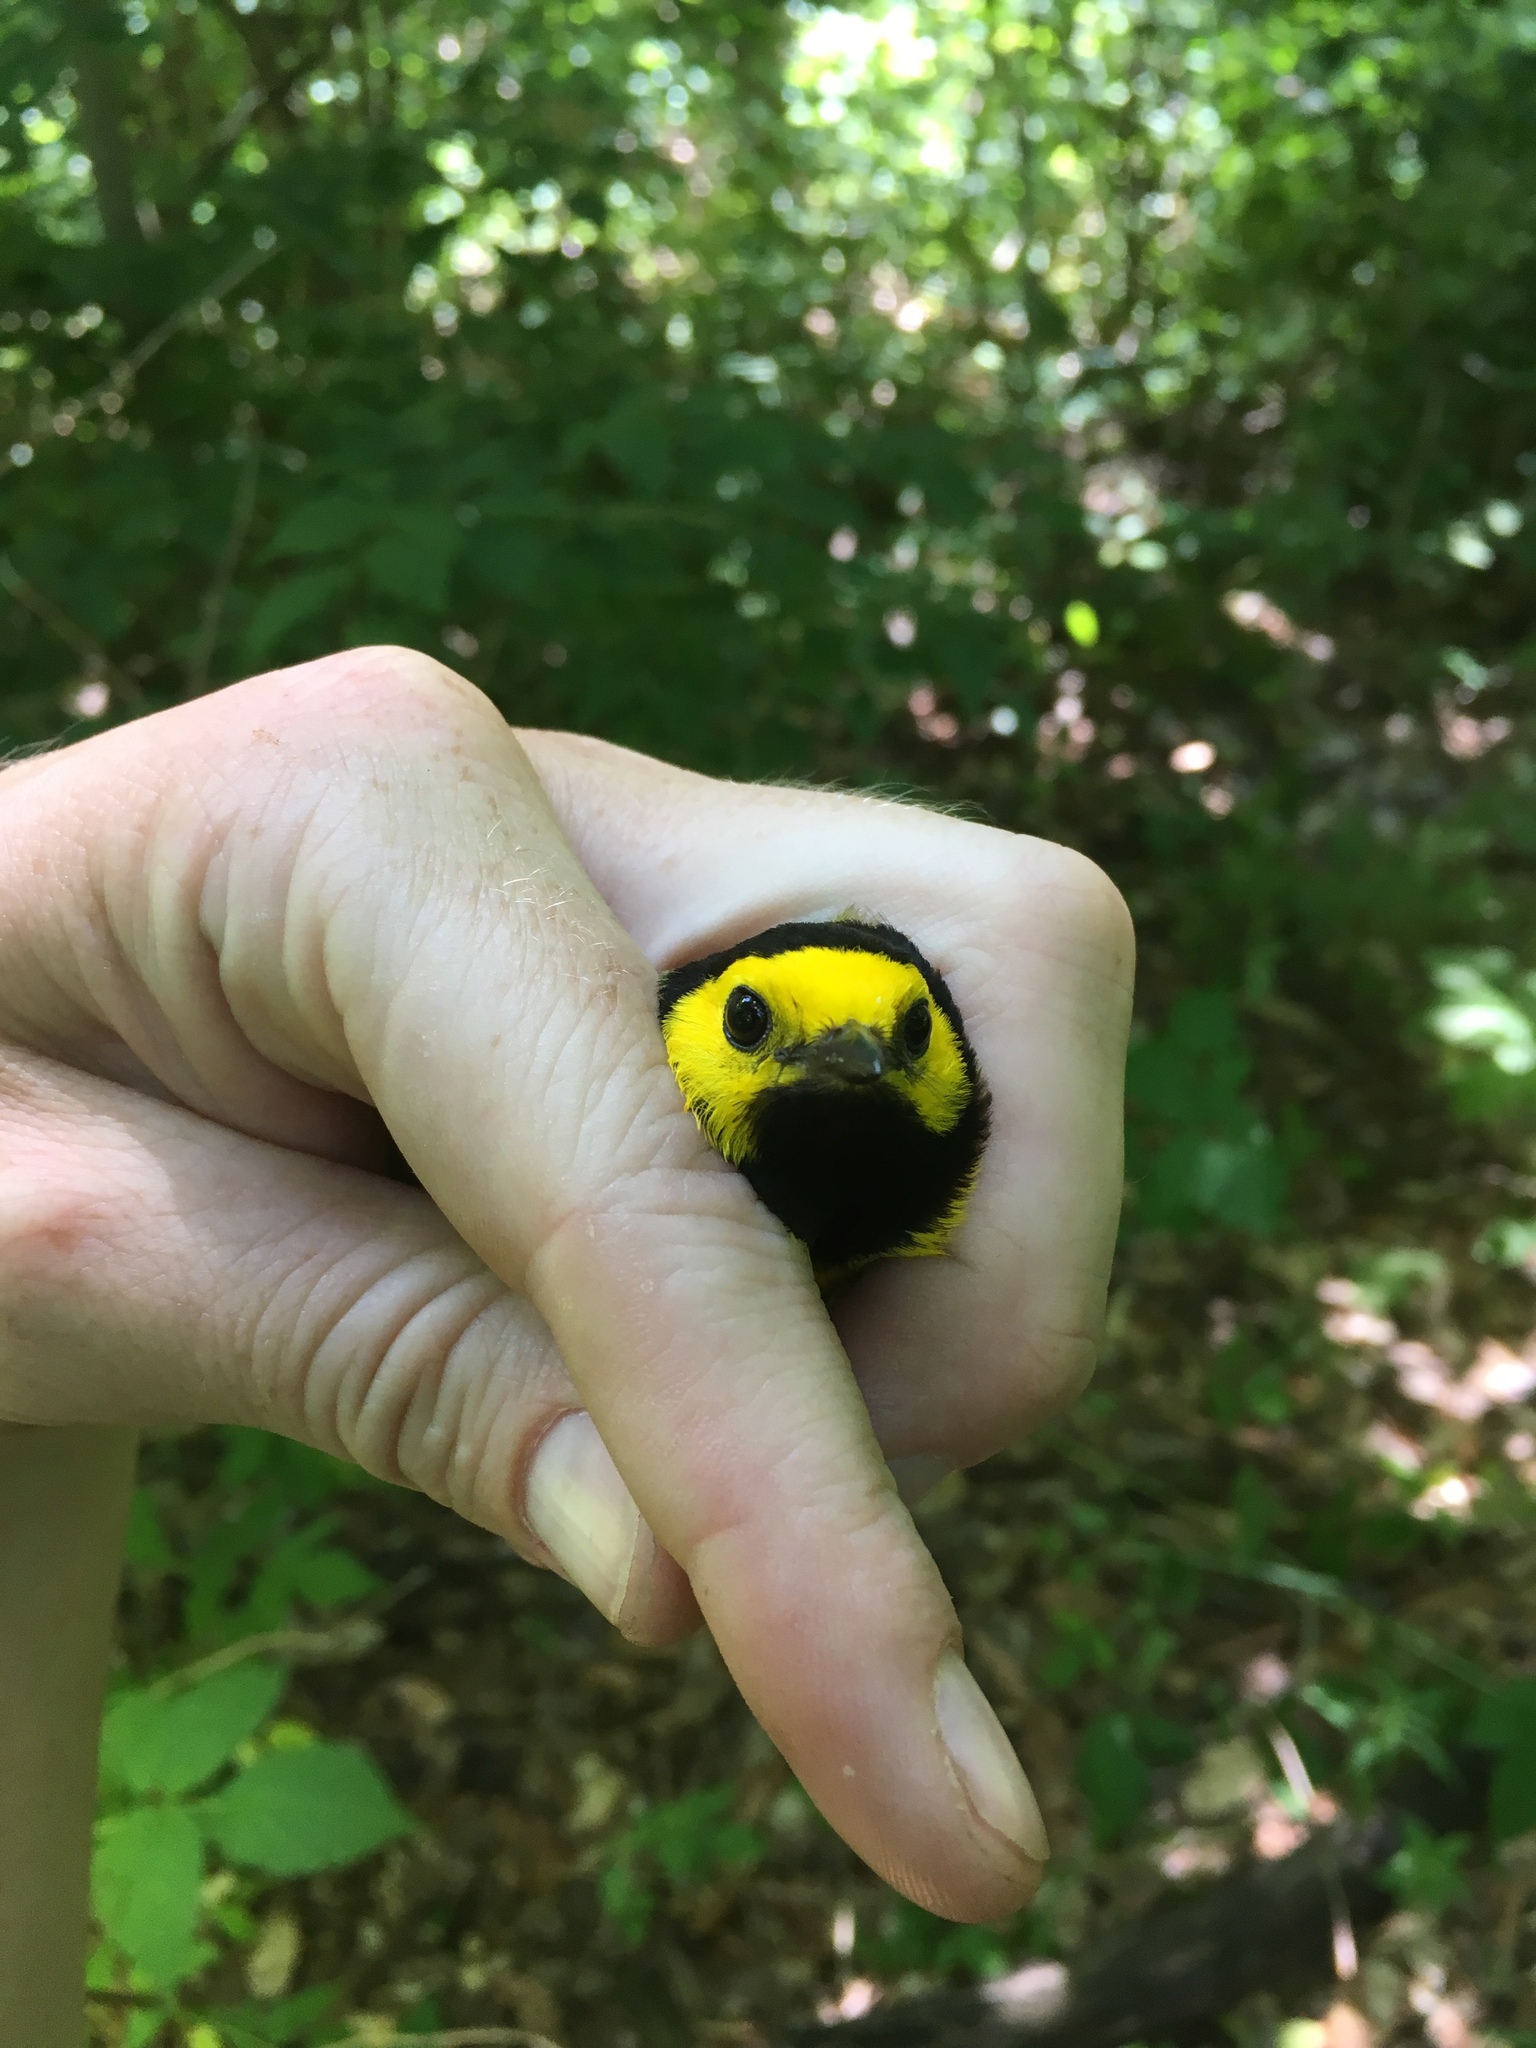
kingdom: Animalia
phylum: Chordata
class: Aves
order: Passeriformes
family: Parulidae
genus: Setophaga
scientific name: Setophaga citrina
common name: Hooded warbler
